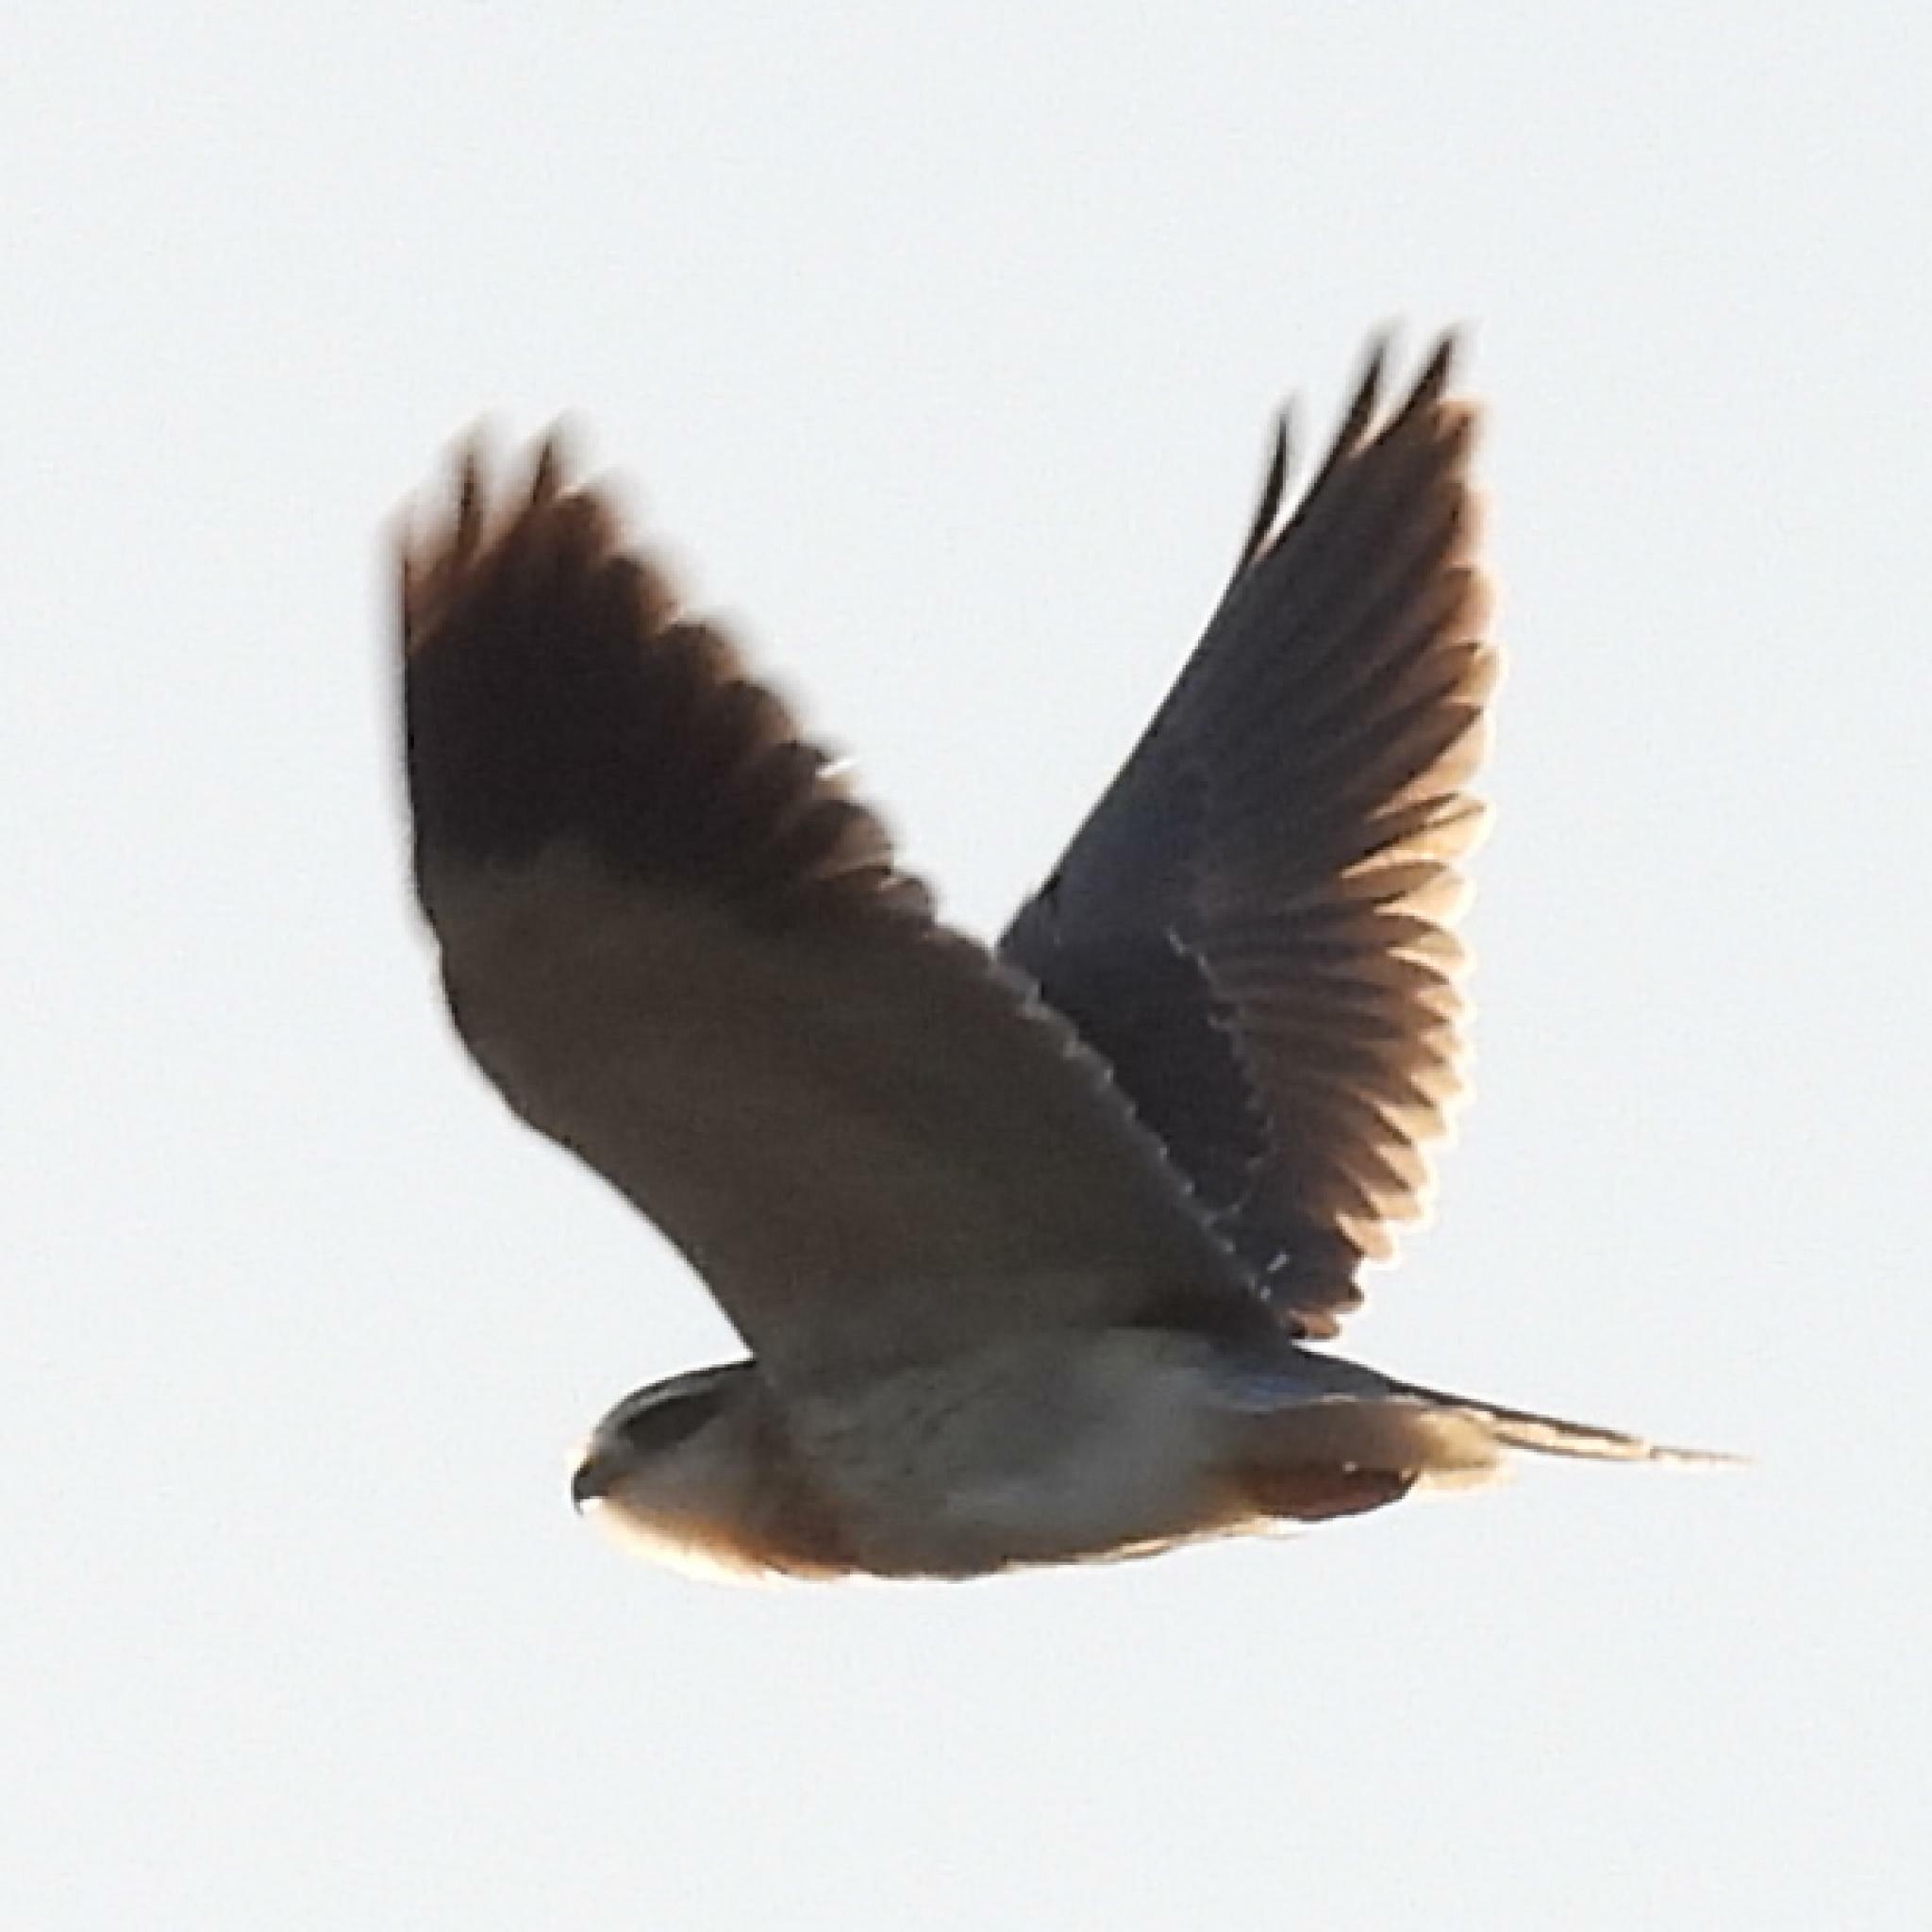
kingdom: Animalia
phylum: Chordata
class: Aves
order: Accipitriformes
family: Accipitridae
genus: Elanus
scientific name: Elanus caeruleus
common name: Black-winged kite
